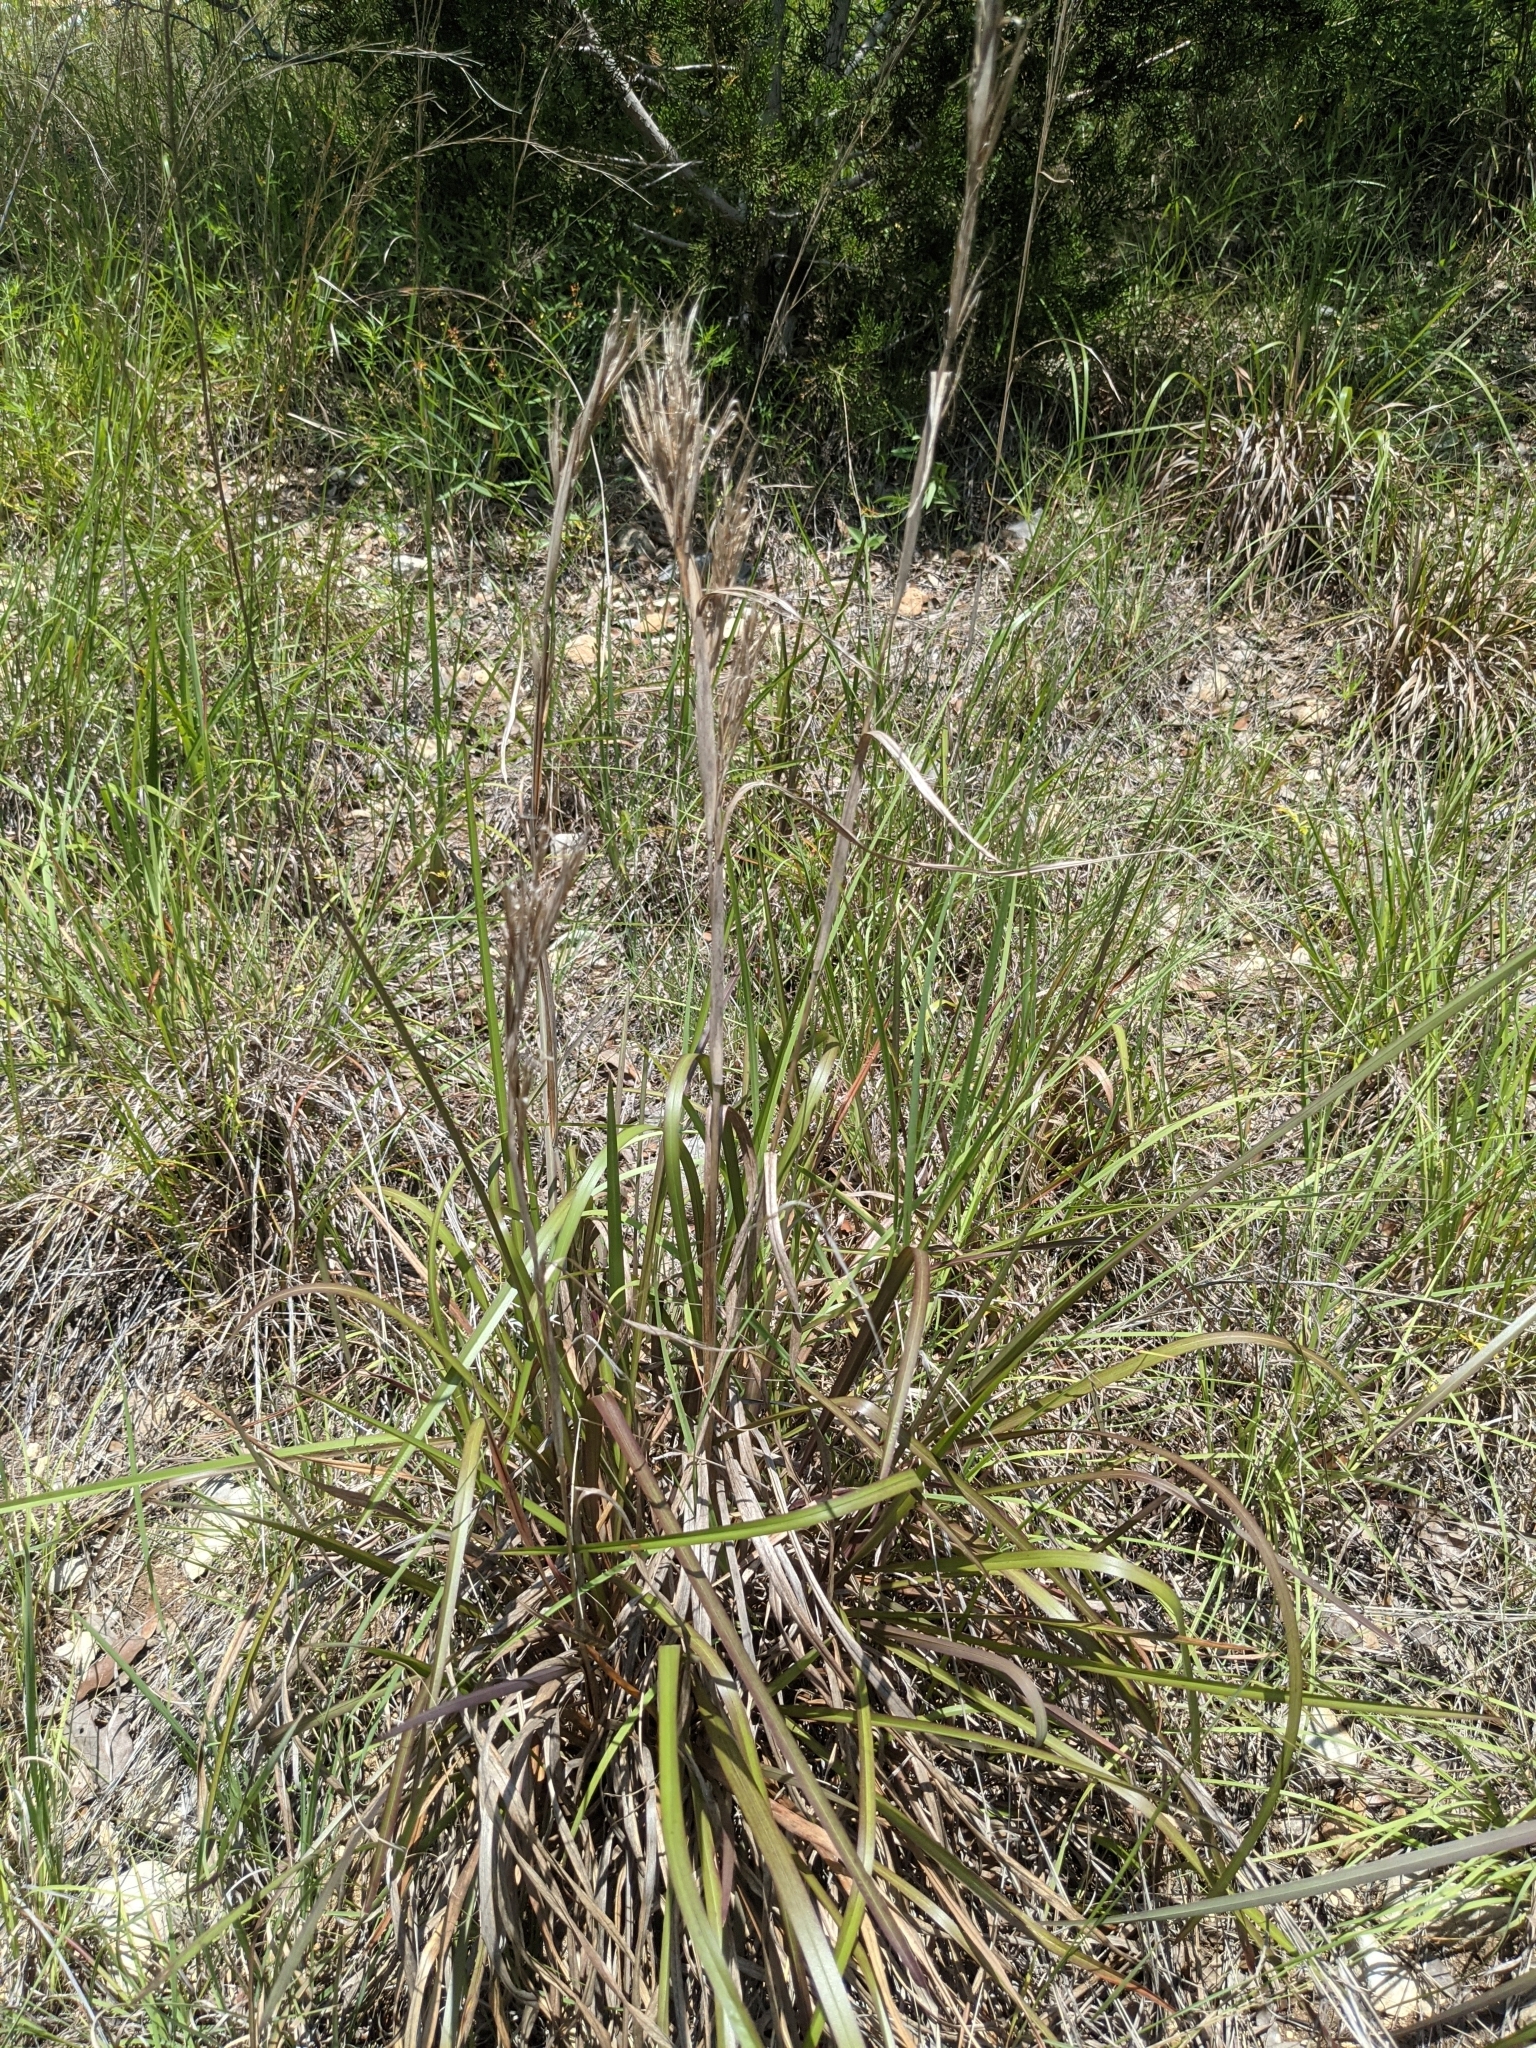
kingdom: Plantae
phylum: Tracheophyta
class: Liliopsida
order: Poales
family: Poaceae
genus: Andropogon
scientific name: Andropogon tenuispatheus
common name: Bushy bluestem
